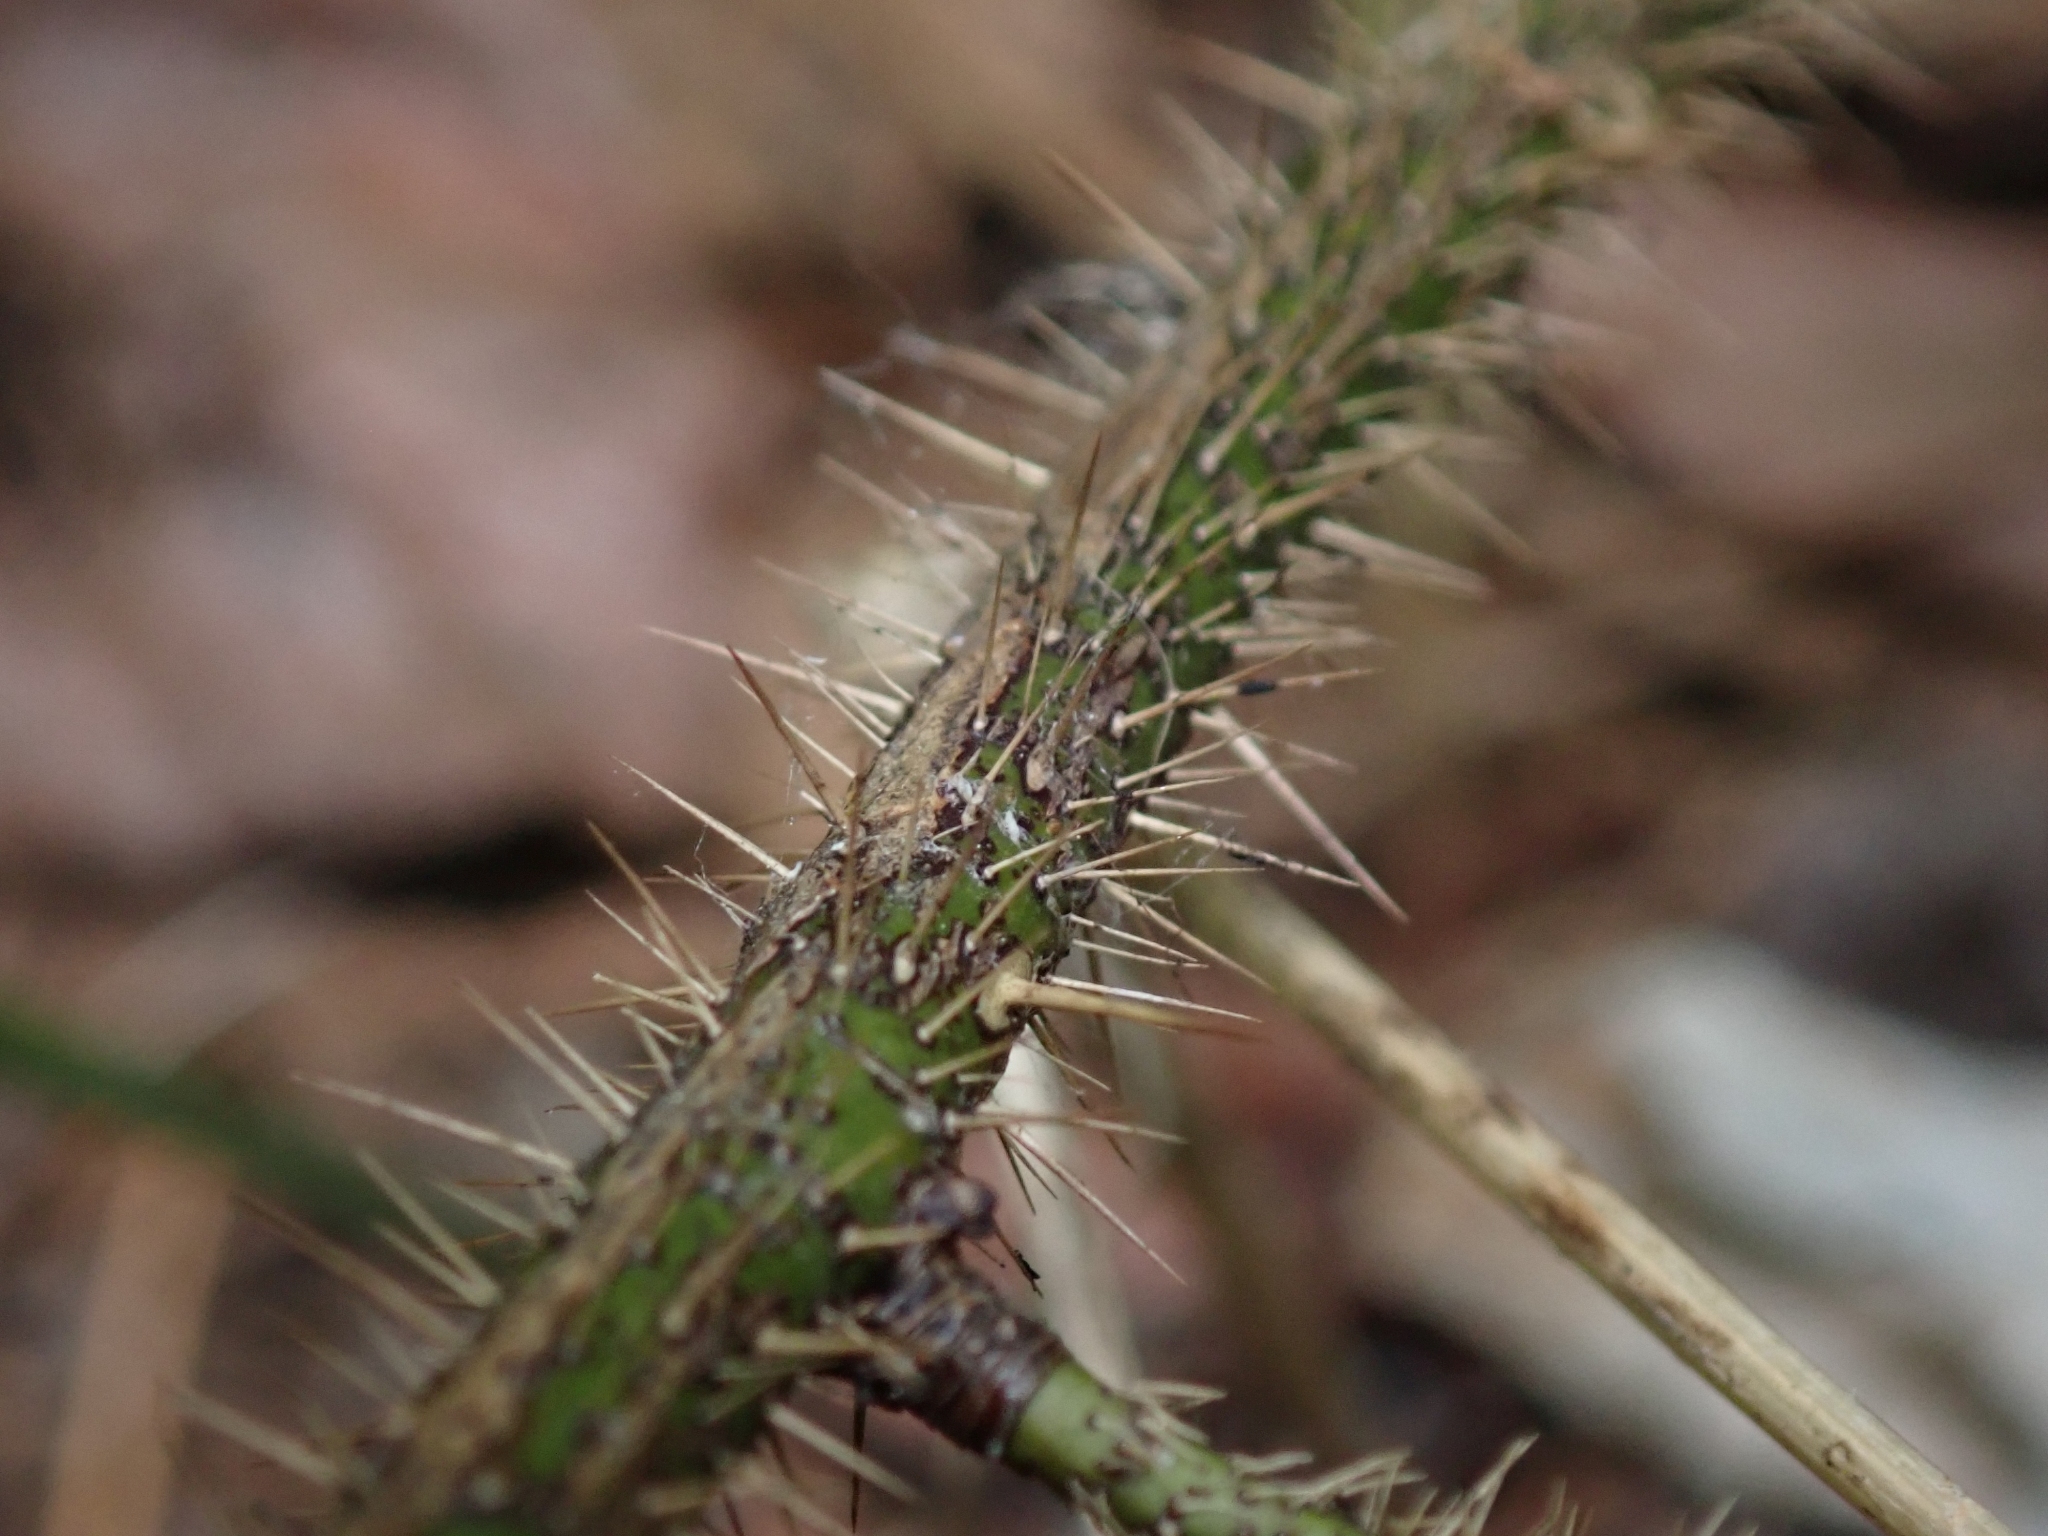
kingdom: Plantae
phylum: Tracheophyta
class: Magnoliopsida
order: Rosales
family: Rosaceae
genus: Rosa
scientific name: Rosa gymnocarpa
